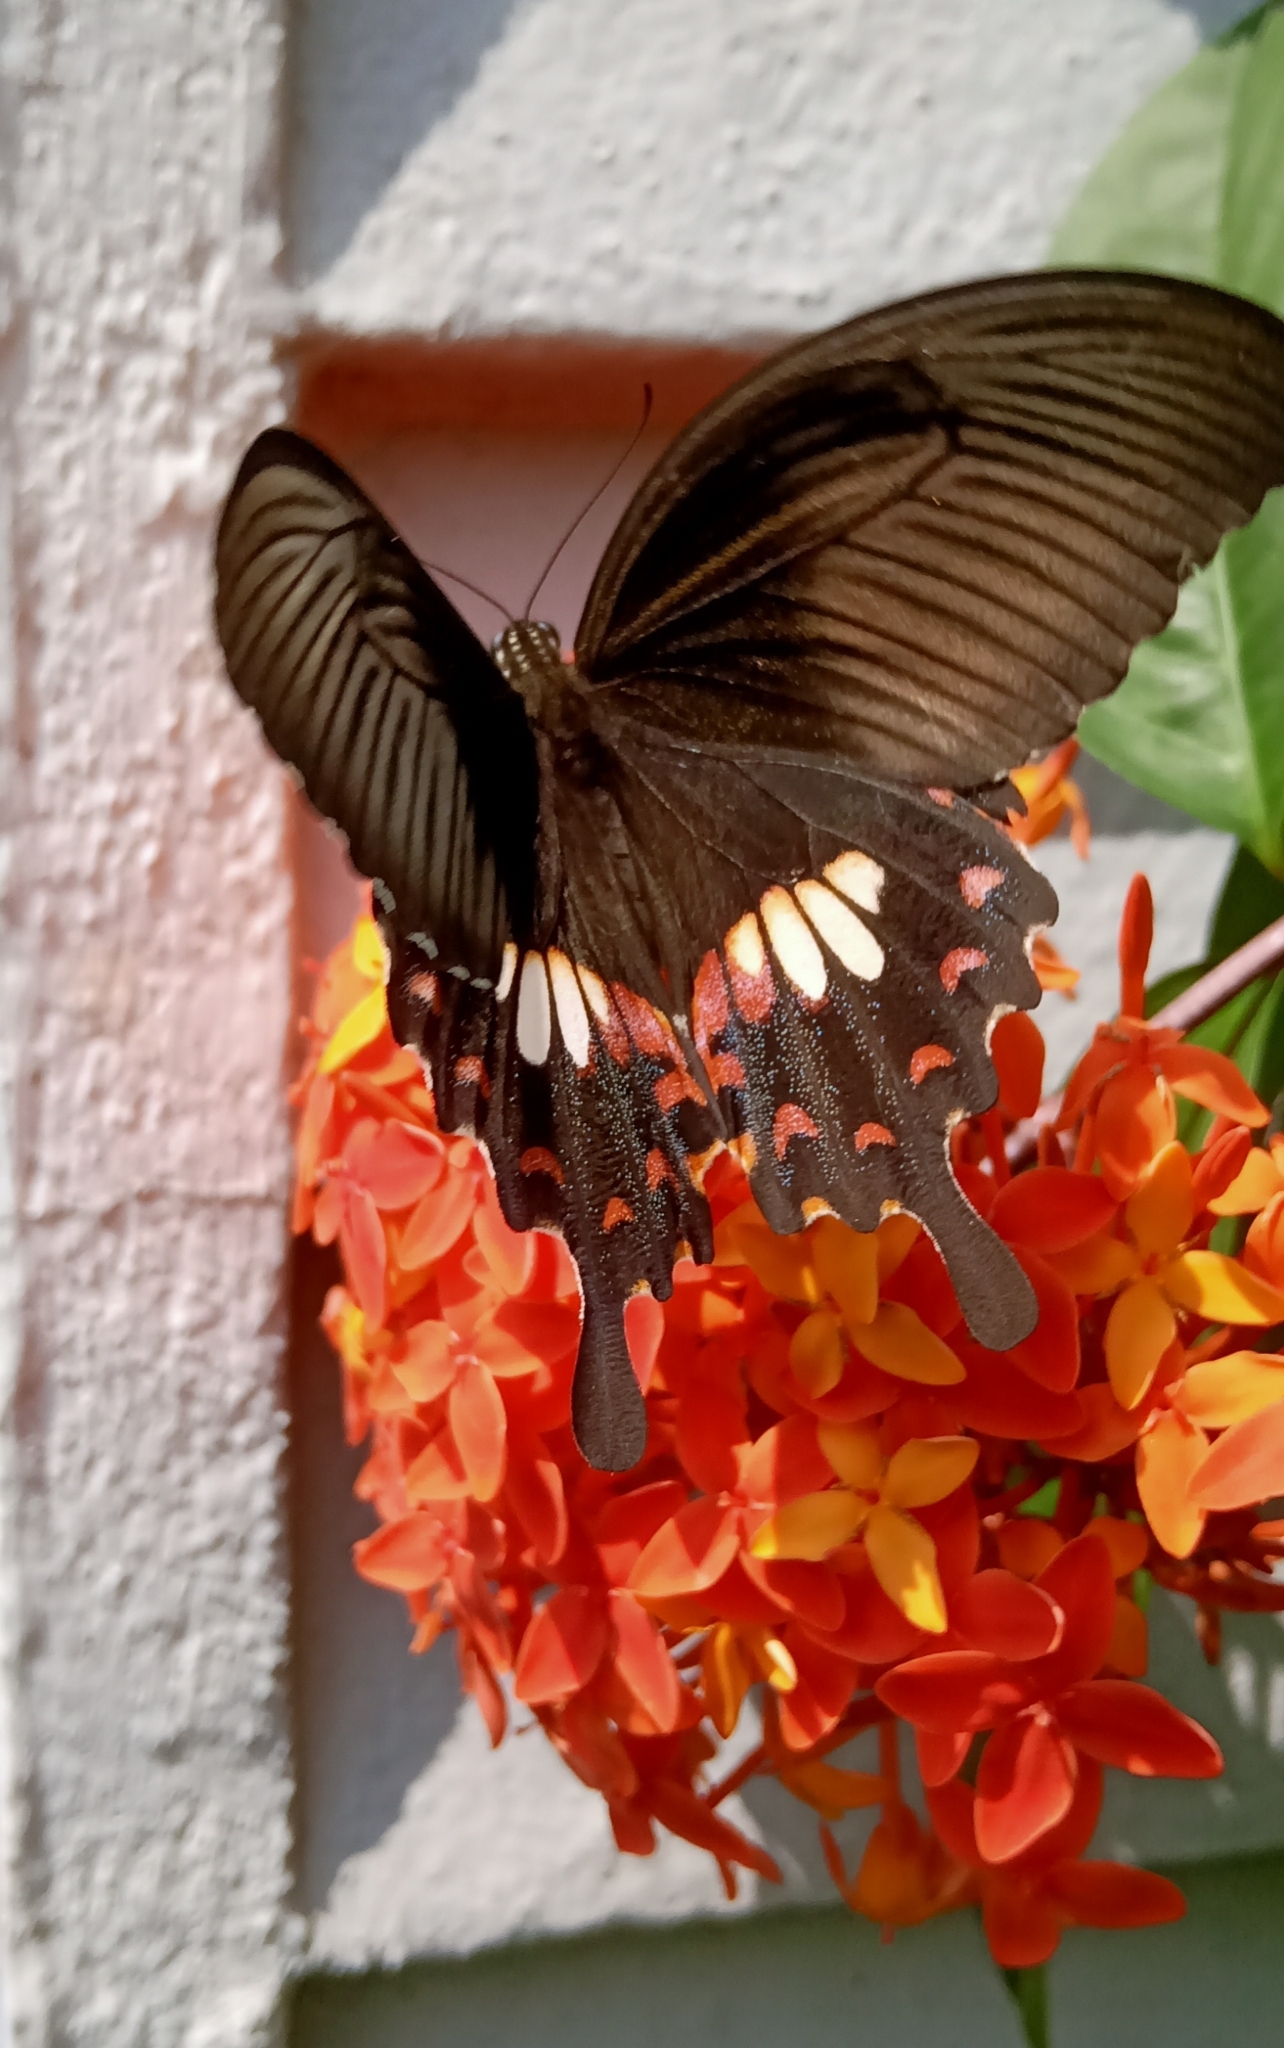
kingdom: Animalia
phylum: Arthropoda
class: Insecta
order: Lepidoptera
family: Papilionidae
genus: Papilio
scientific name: Papilio polytes
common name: Common mormon
